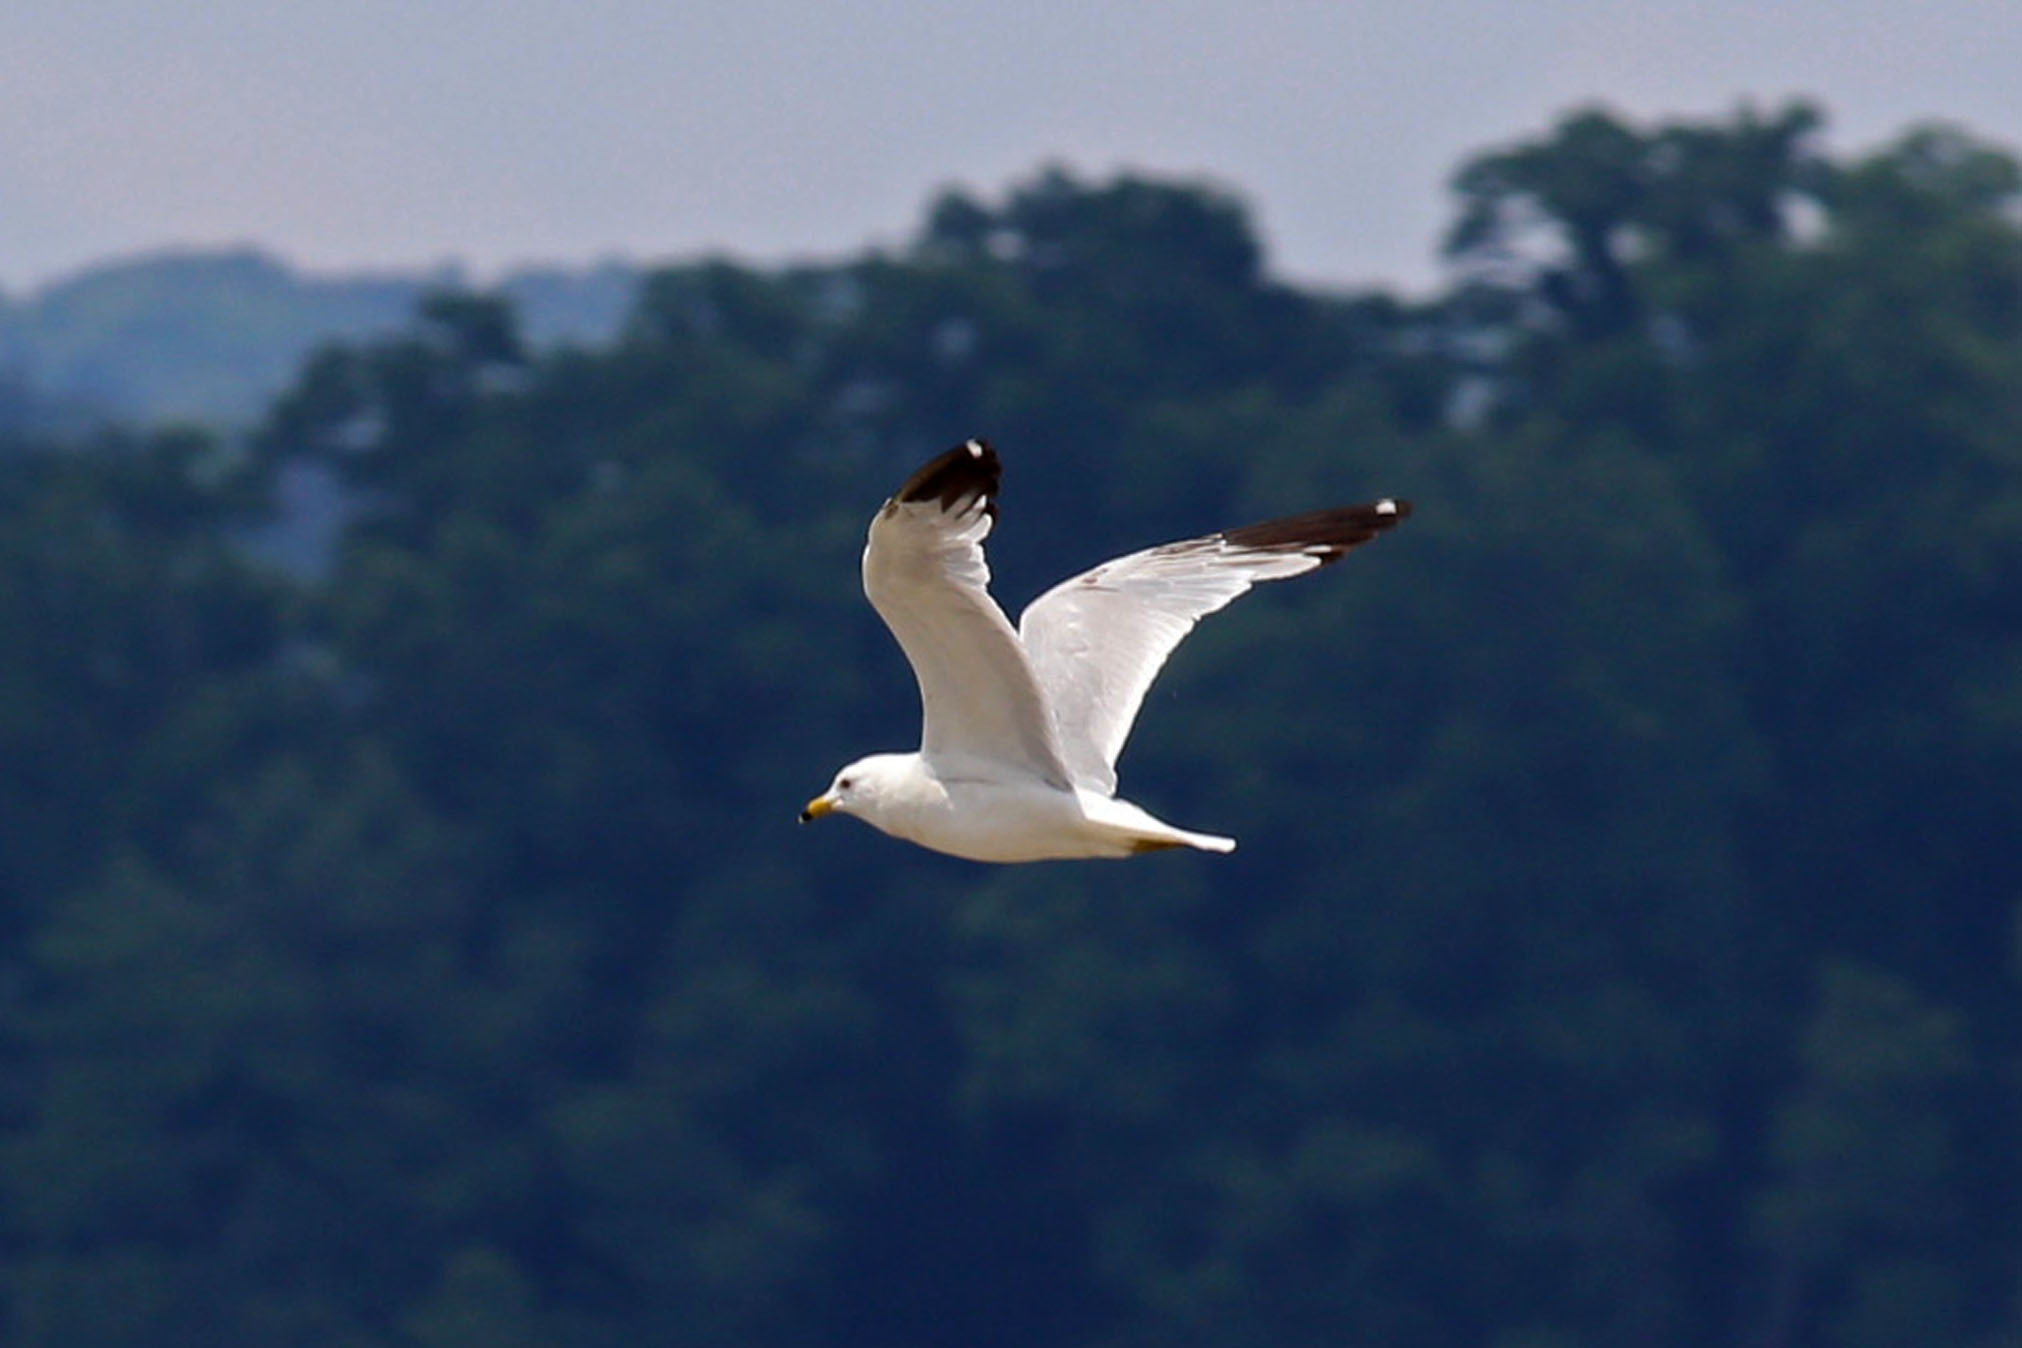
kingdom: Animalia
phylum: Chordata
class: Aves
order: Charadriiformes
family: Laridae
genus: Larus
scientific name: Larus delawarensis
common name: Ring-billed gull
